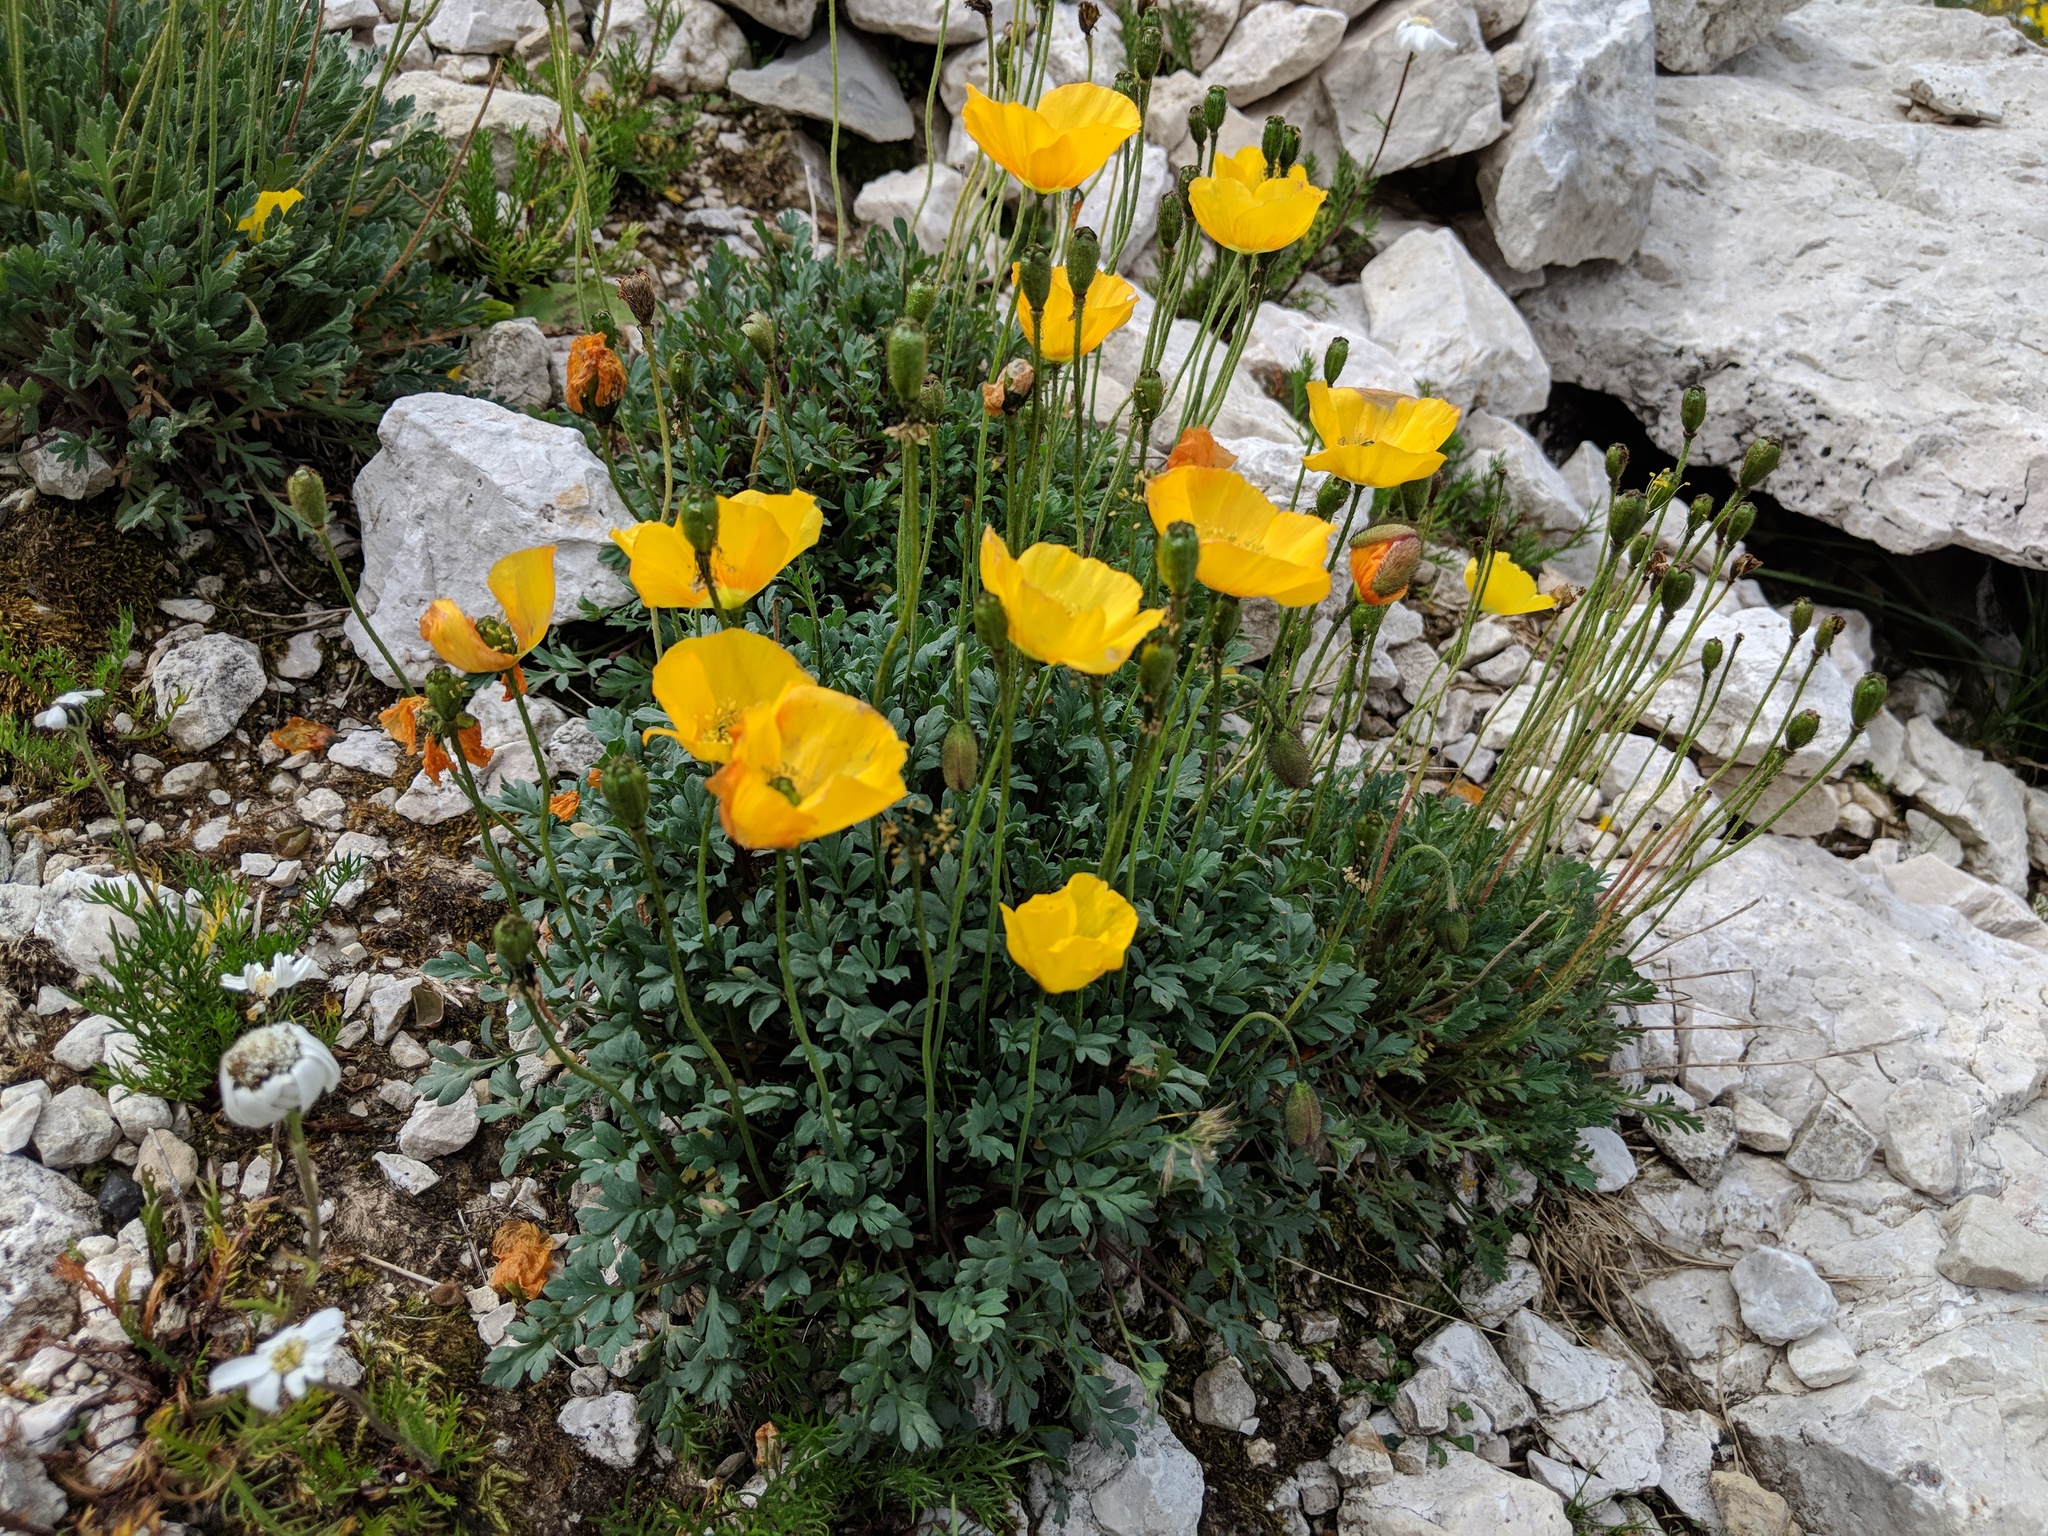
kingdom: Plantae
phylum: Tracheophyta
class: Magnoliopsida
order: Ranunculales
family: Papaveraceae
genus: Papaver
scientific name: Papaver alpinum
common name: Austrian poppy
